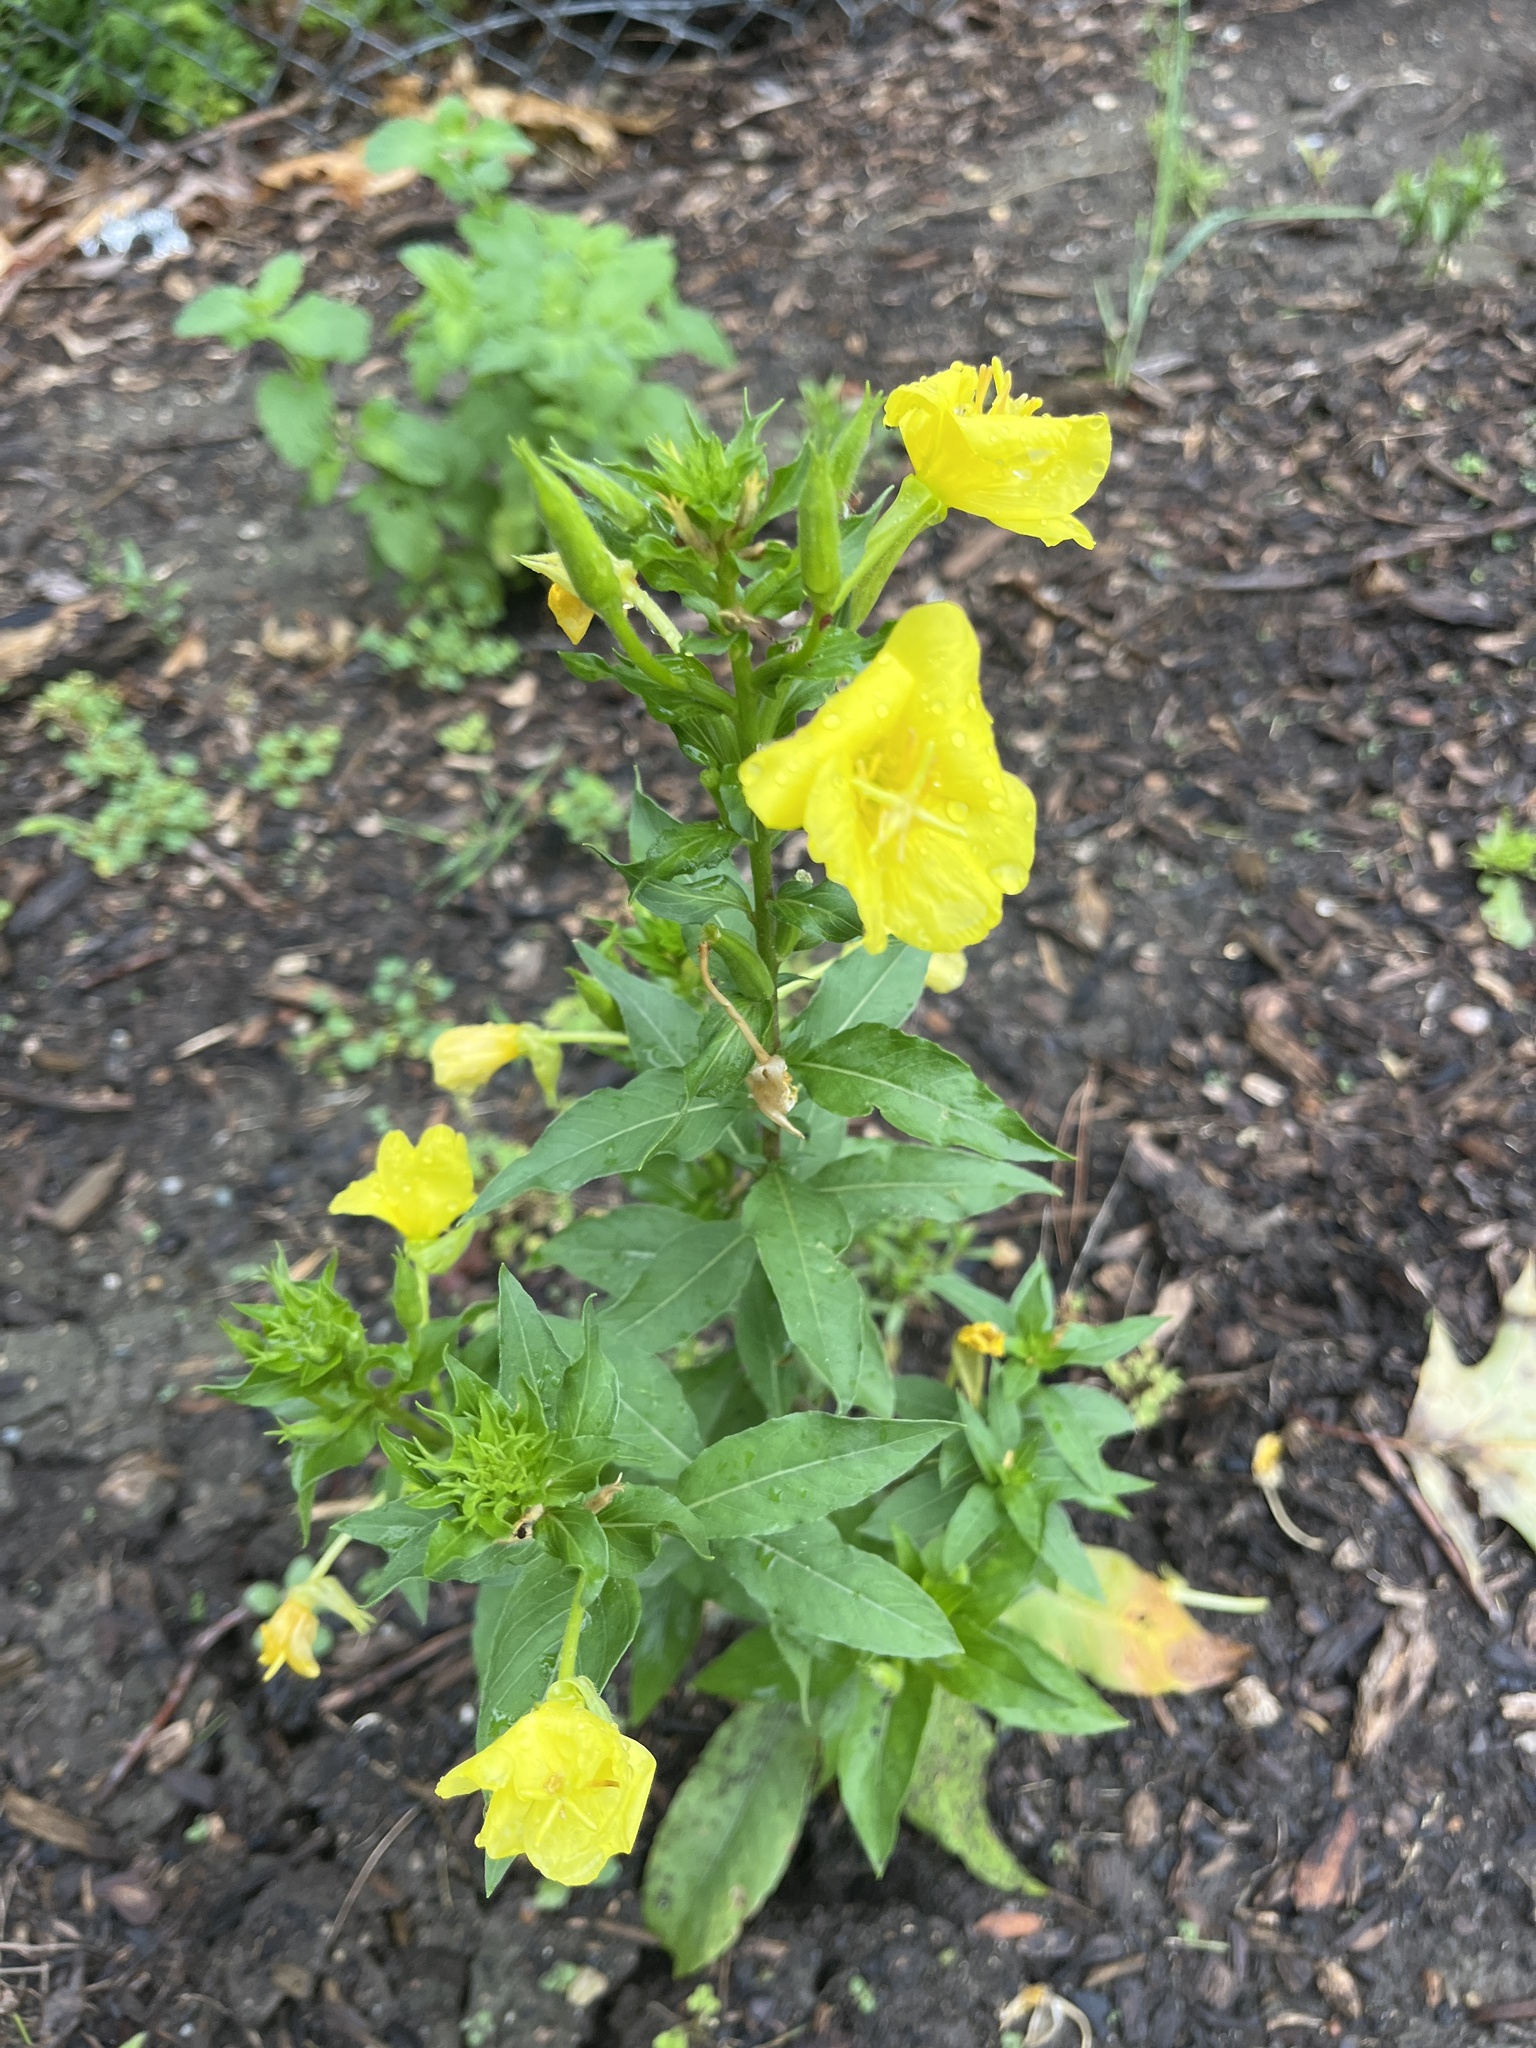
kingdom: Plantae
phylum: Tracheophyta
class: Magnoliopsida
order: Myrtales
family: Onagraceae
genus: Oenothera
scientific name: Oenothera biennis
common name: Common evening-primrose
